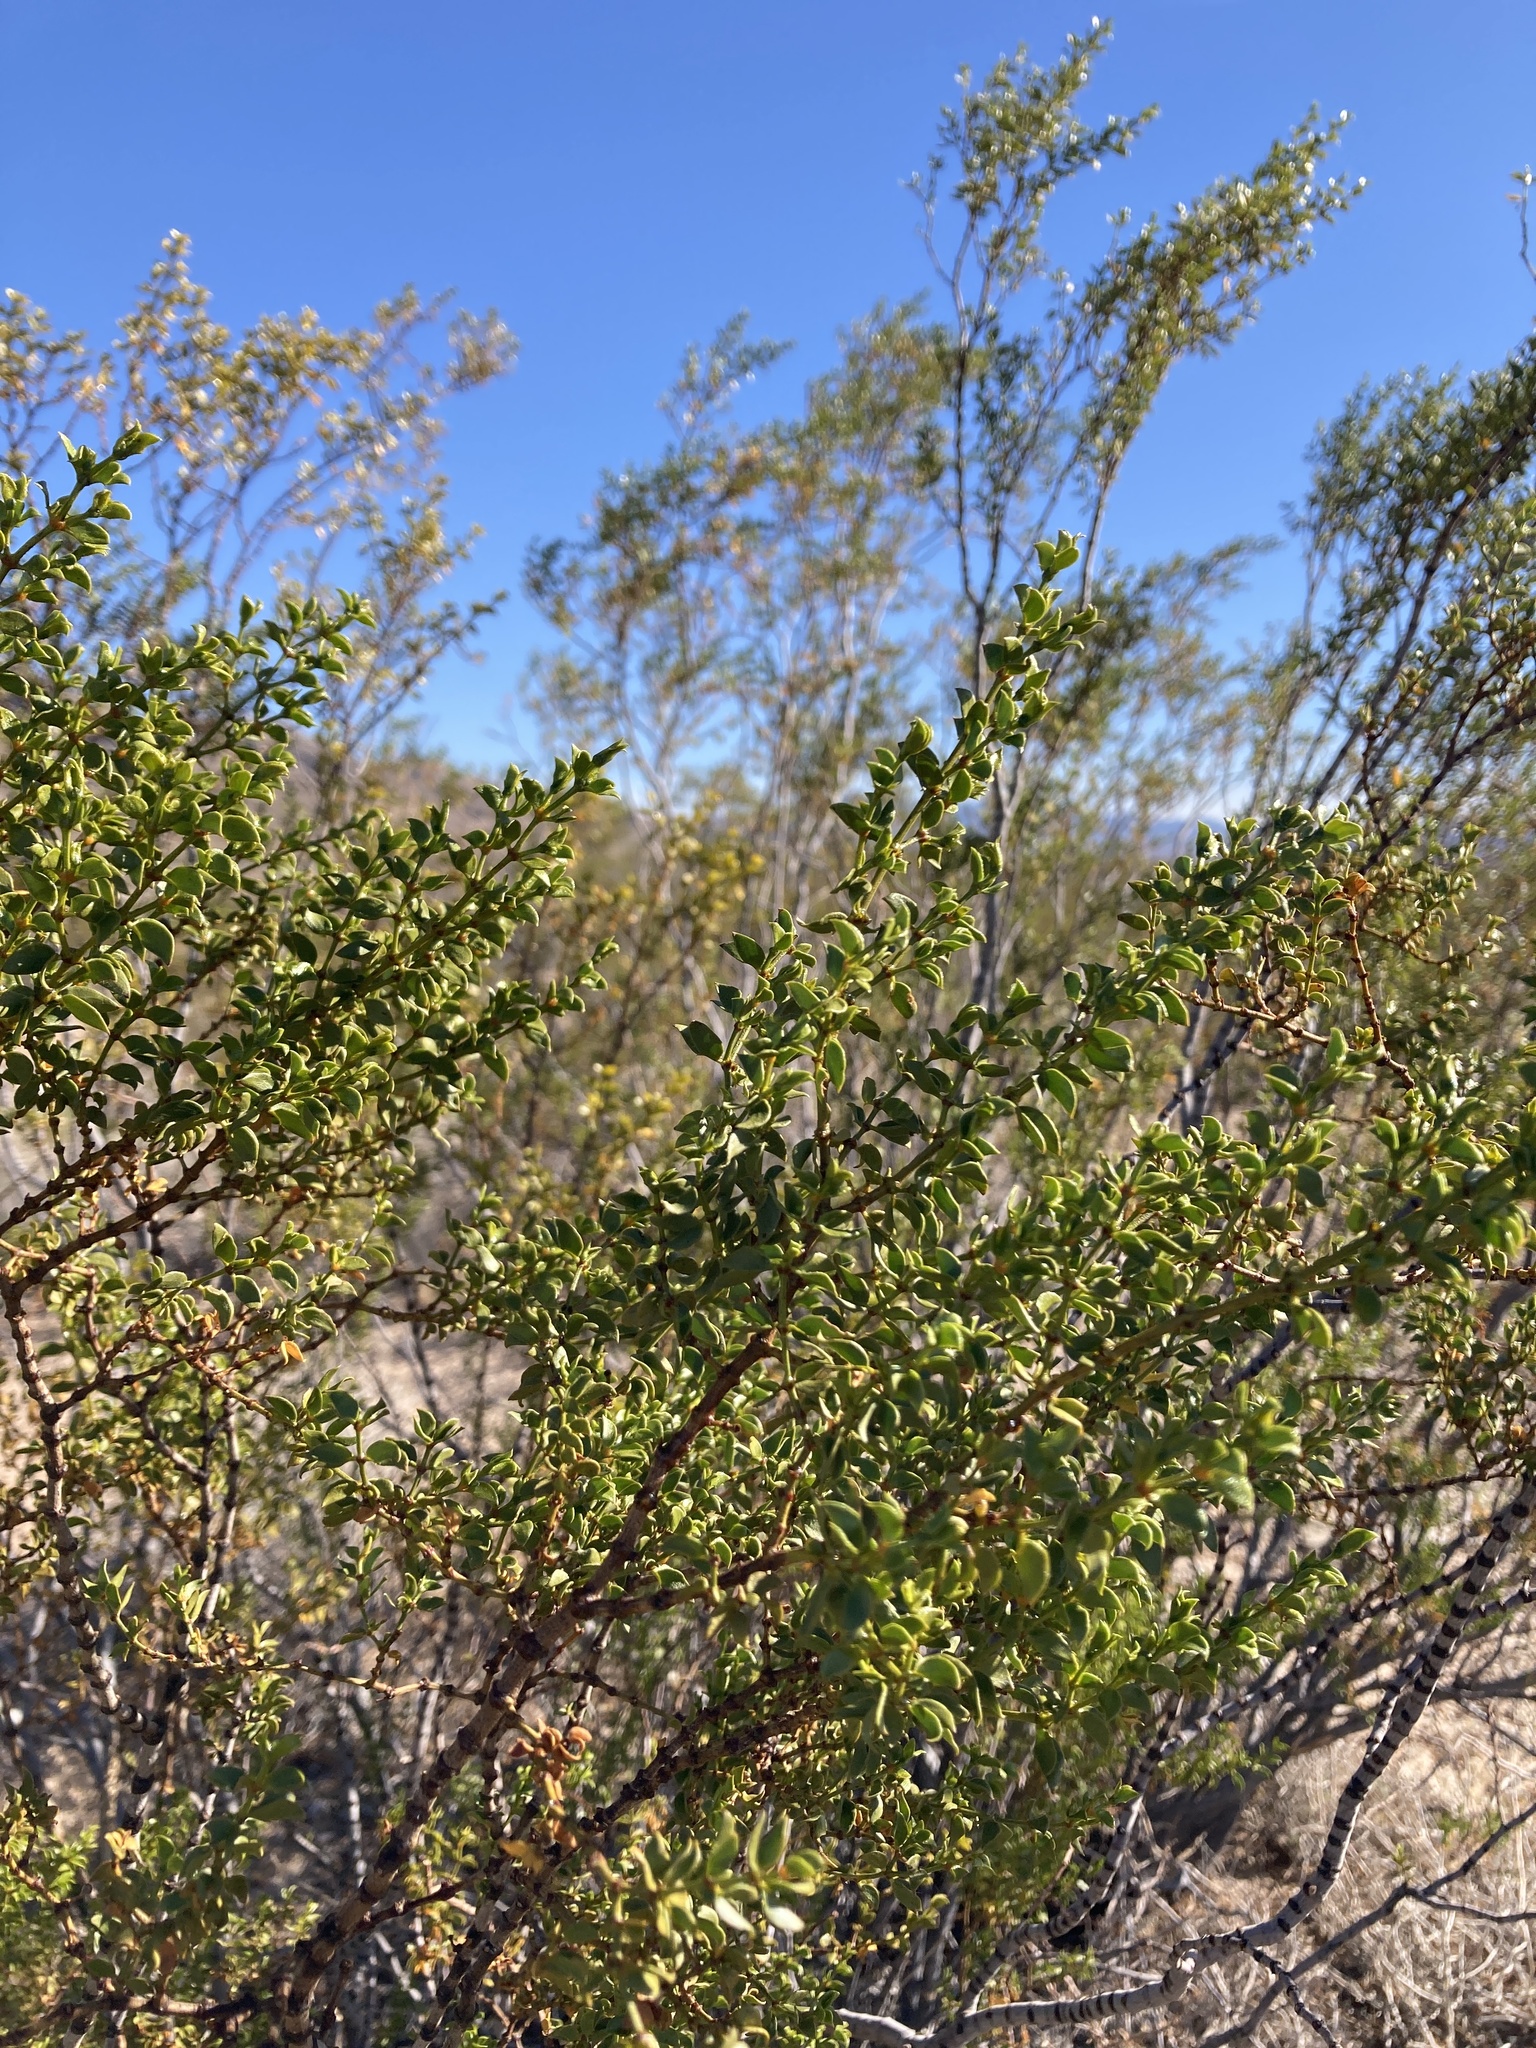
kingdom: Plantae
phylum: Tracheophyta
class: Magnoliopsida
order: Zygophyllales
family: Zygophyllaceae
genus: Larrea
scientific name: Larrea tridentata
